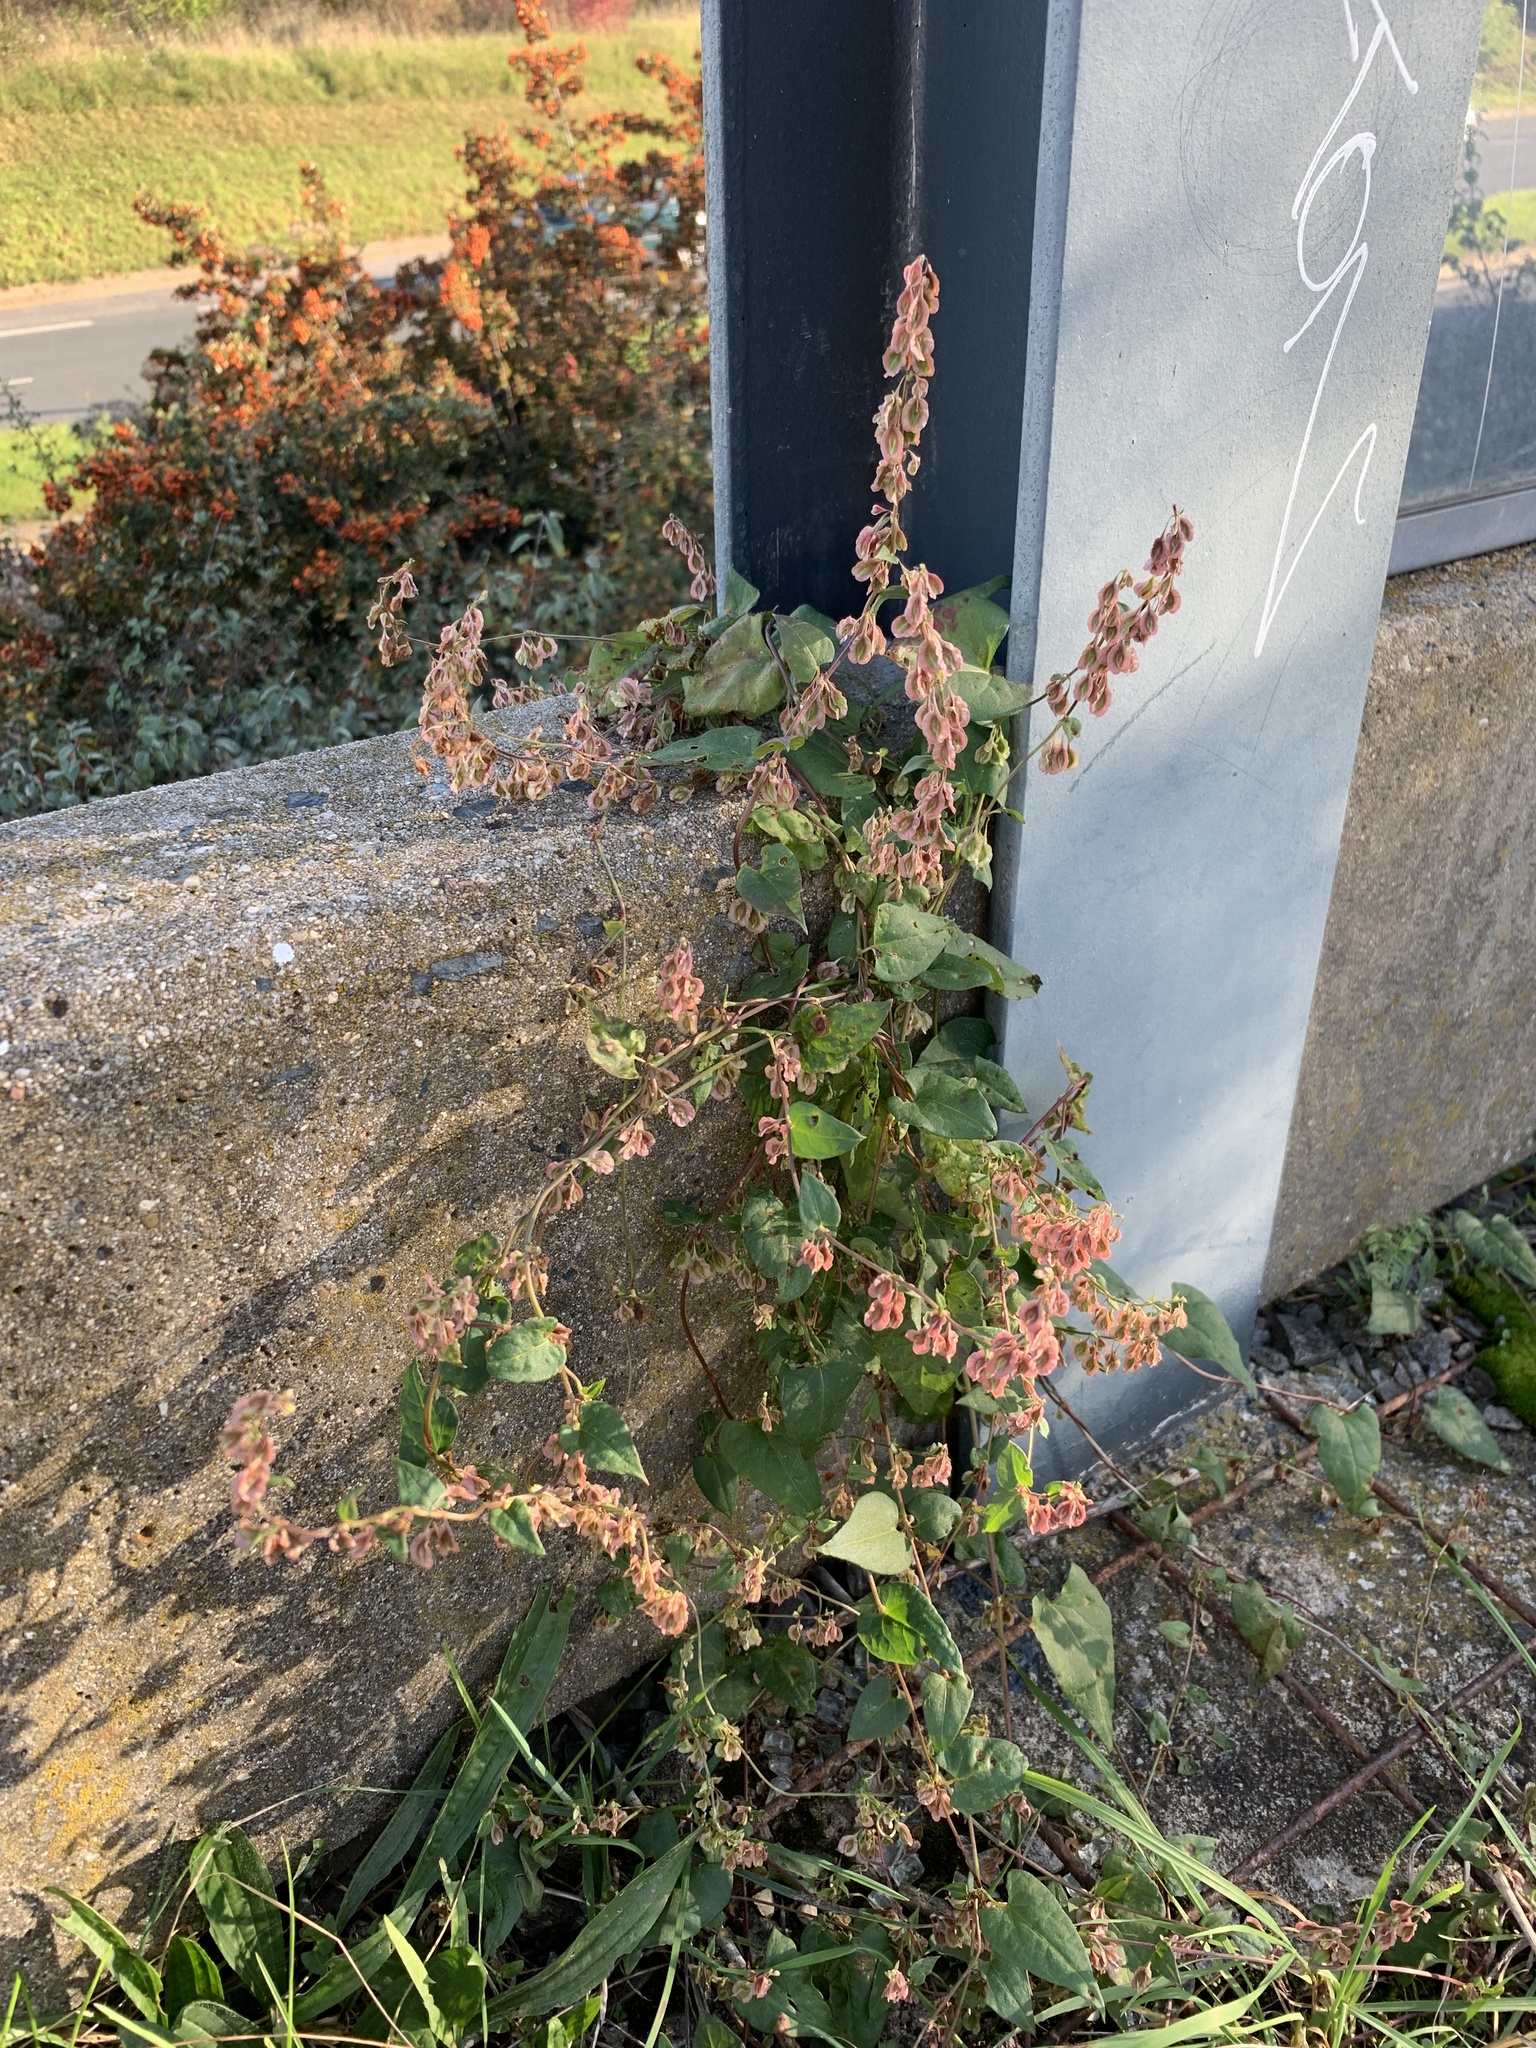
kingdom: Plantae
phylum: Tracheophyta
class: Magnoliopsida
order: Caryophyllales
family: Polygonaceae
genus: Fallopia
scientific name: Fallopia dumetorum
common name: Copse-bindweed
